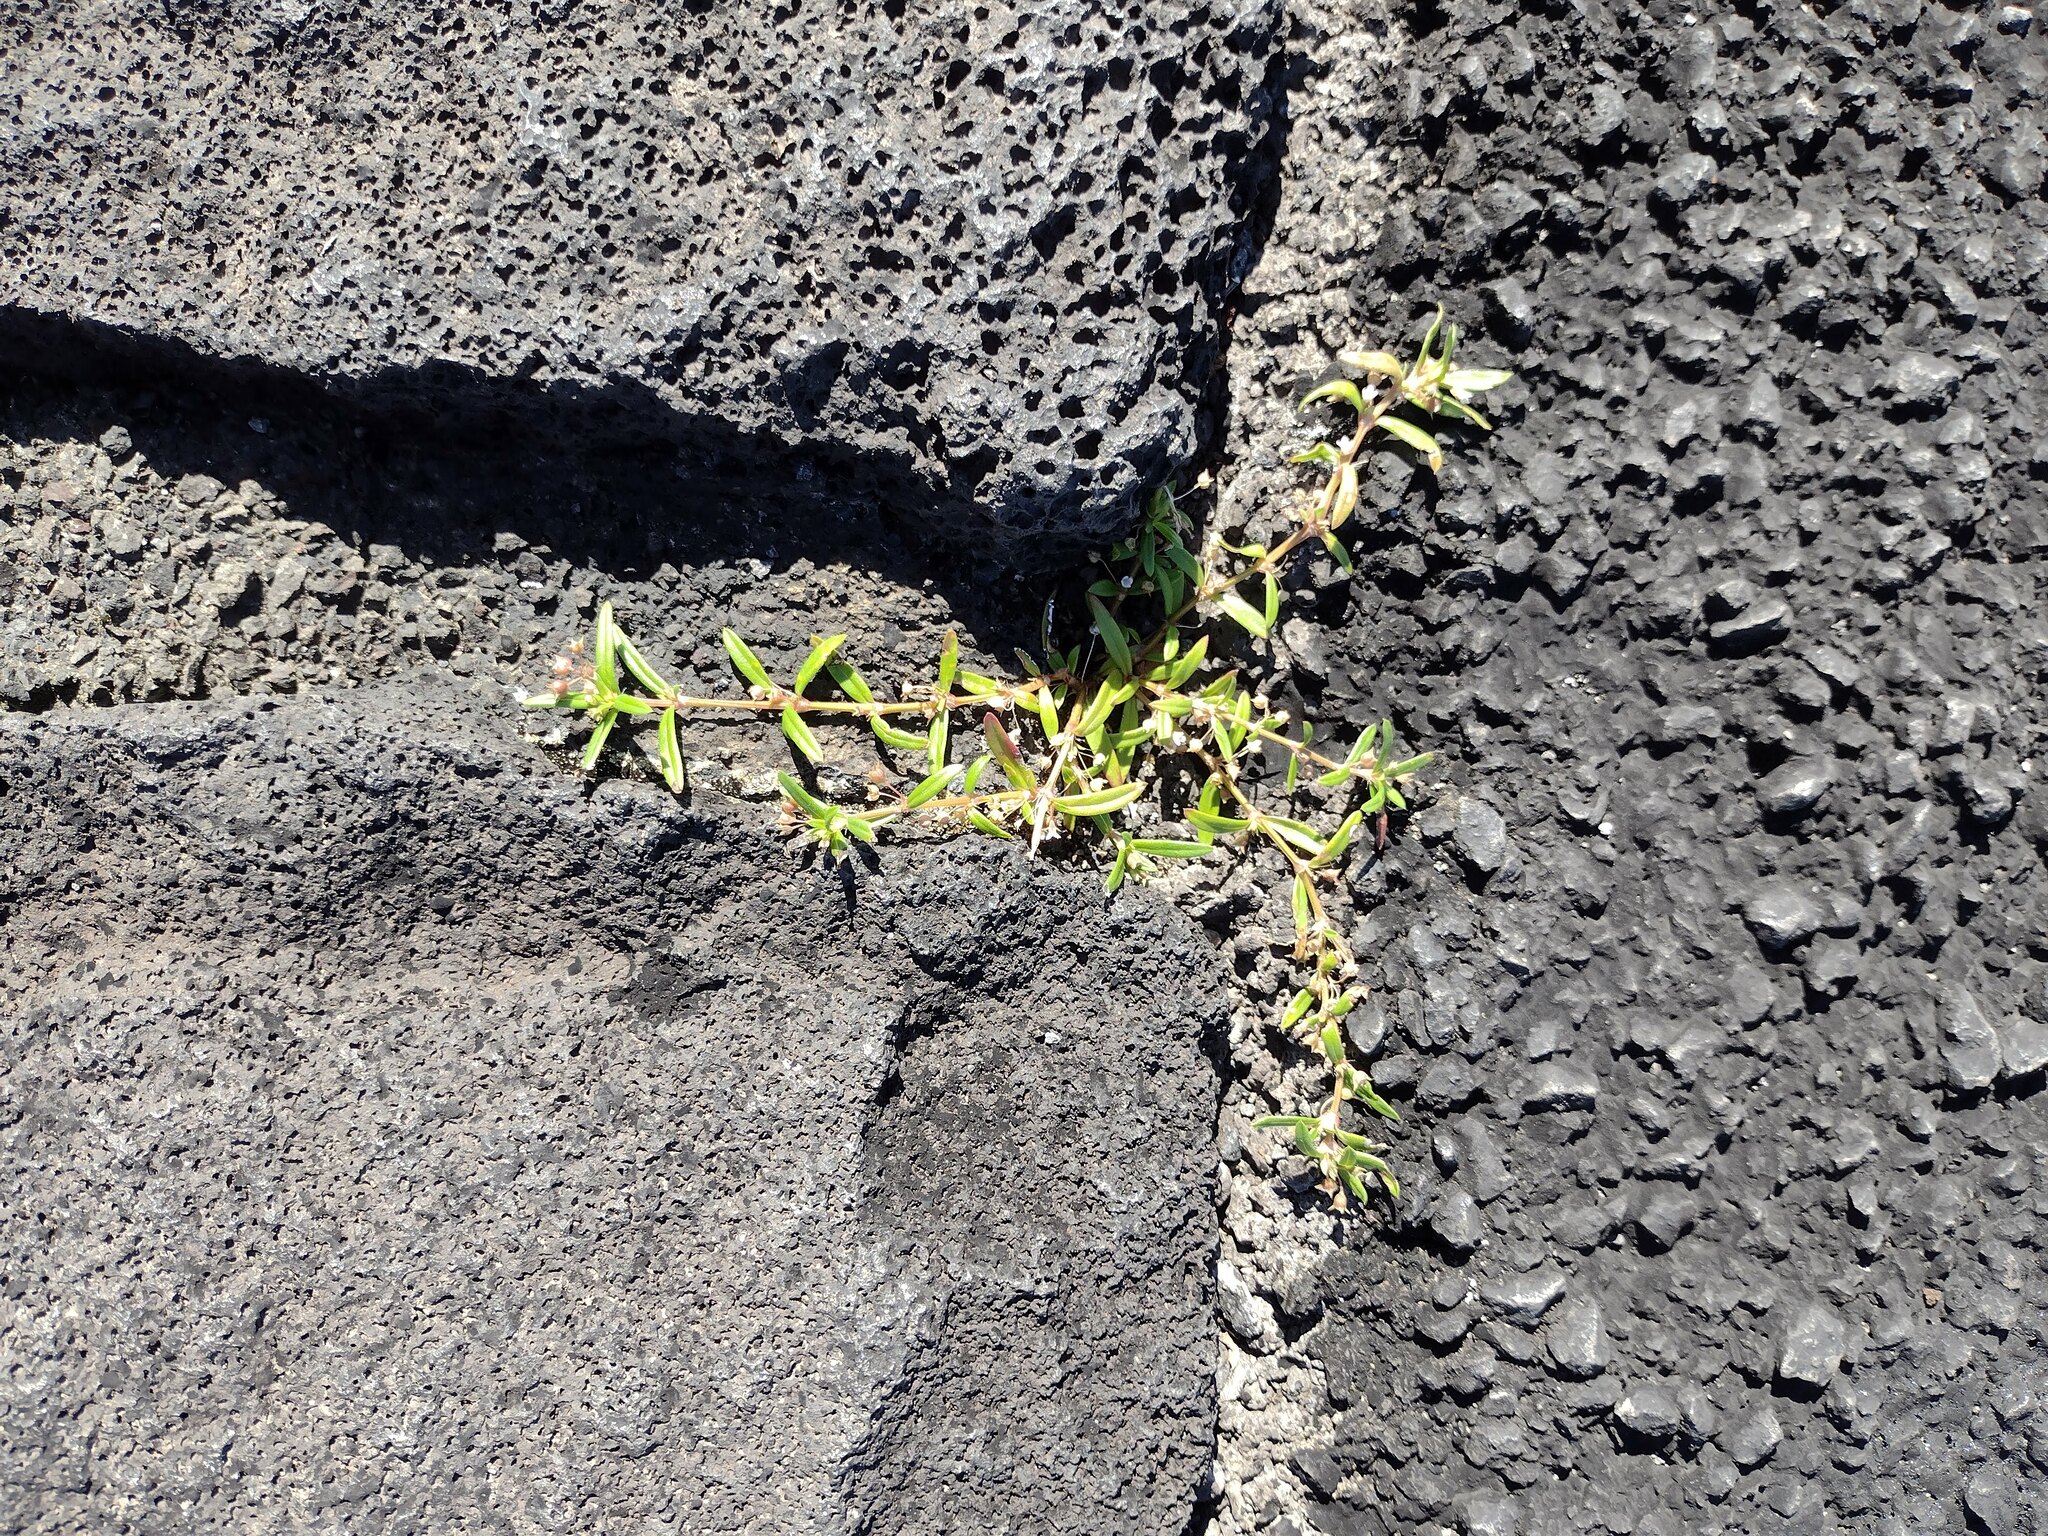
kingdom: Plantae
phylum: Tracheophyta
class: Magnoliopsida
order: Gentianales
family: Rubiaceae
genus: Oldenlandia
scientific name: Oldenlandia corymbosa
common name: Flat-top mille graines
